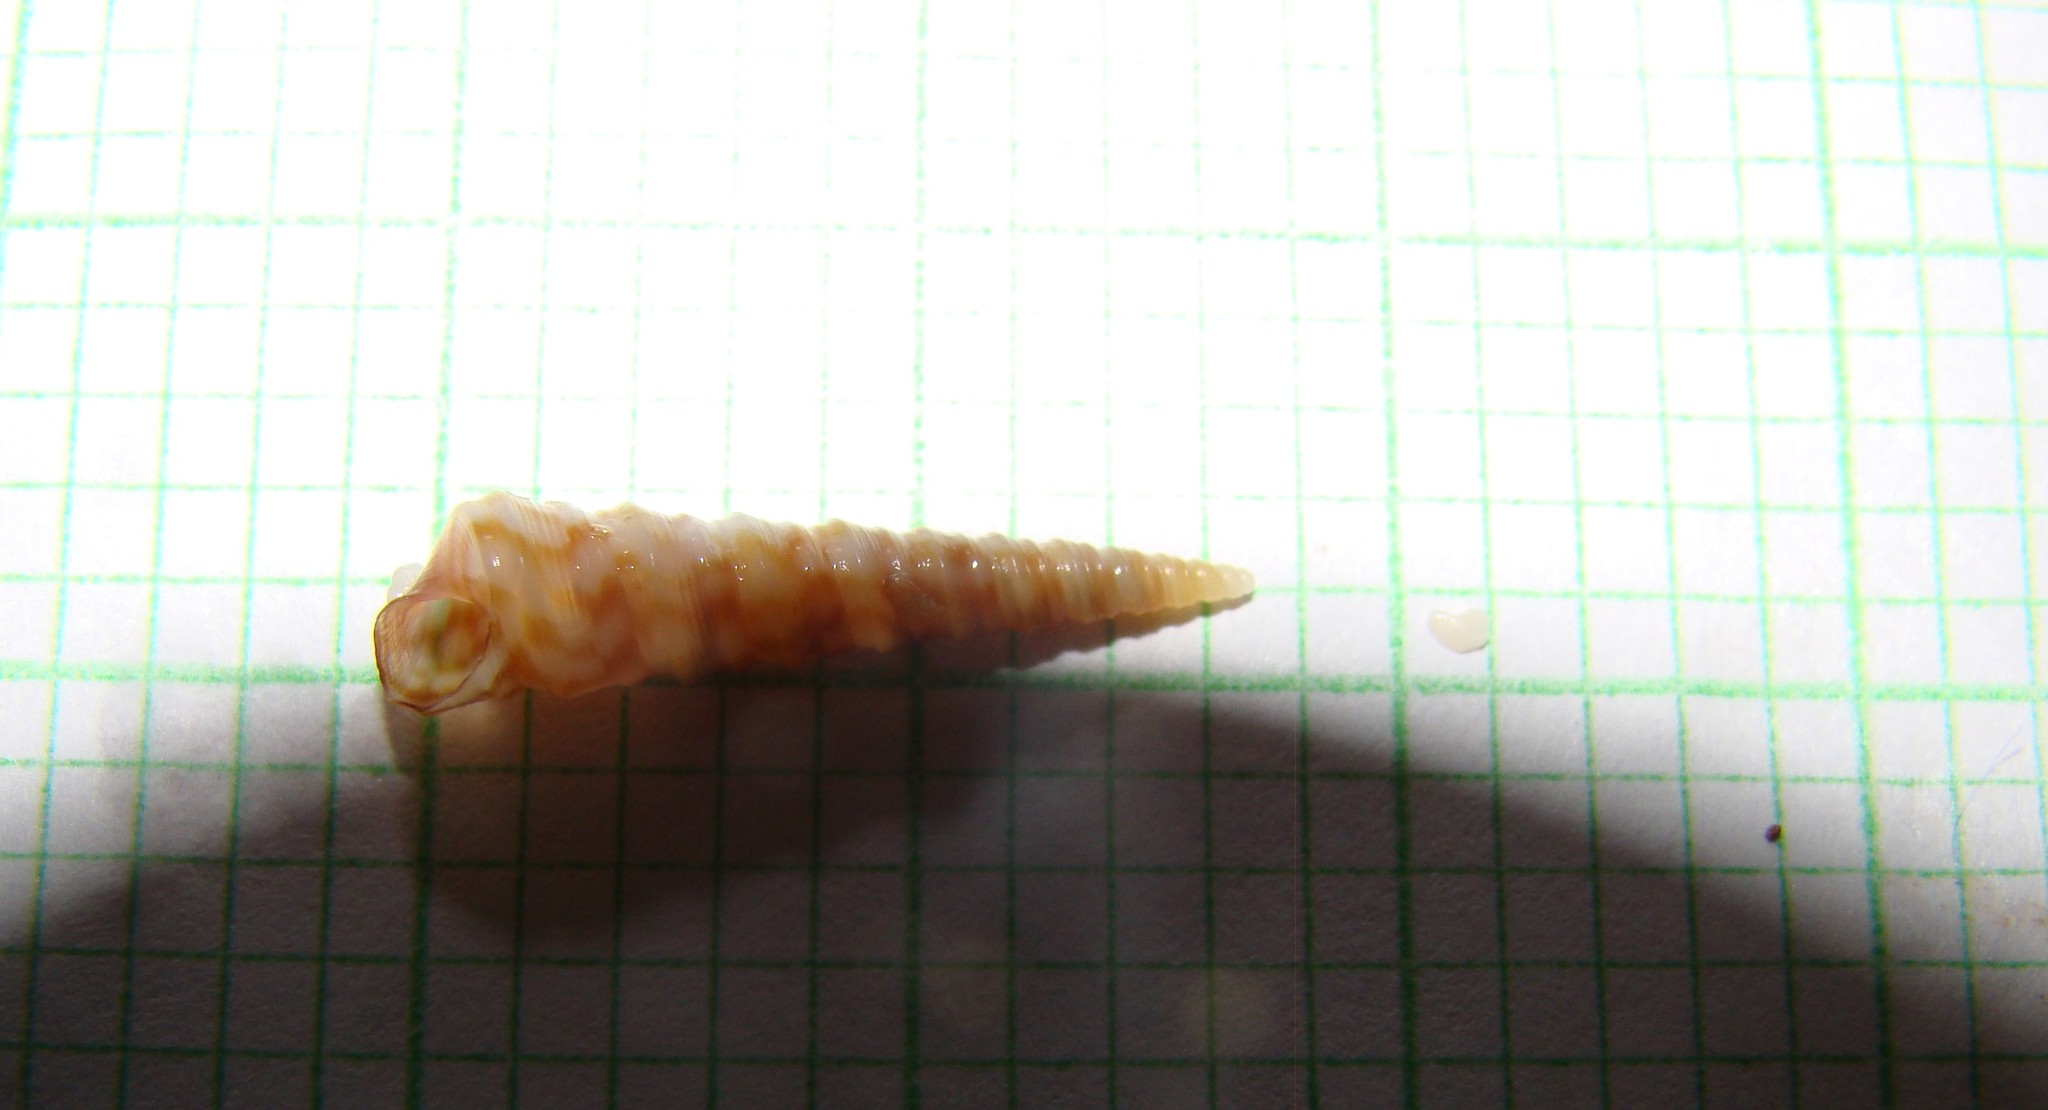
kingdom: Animalia
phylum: Mollusca
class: Gastropoda
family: Turritellidae
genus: Stiracolpus
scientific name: Stiracolpus pagoda
